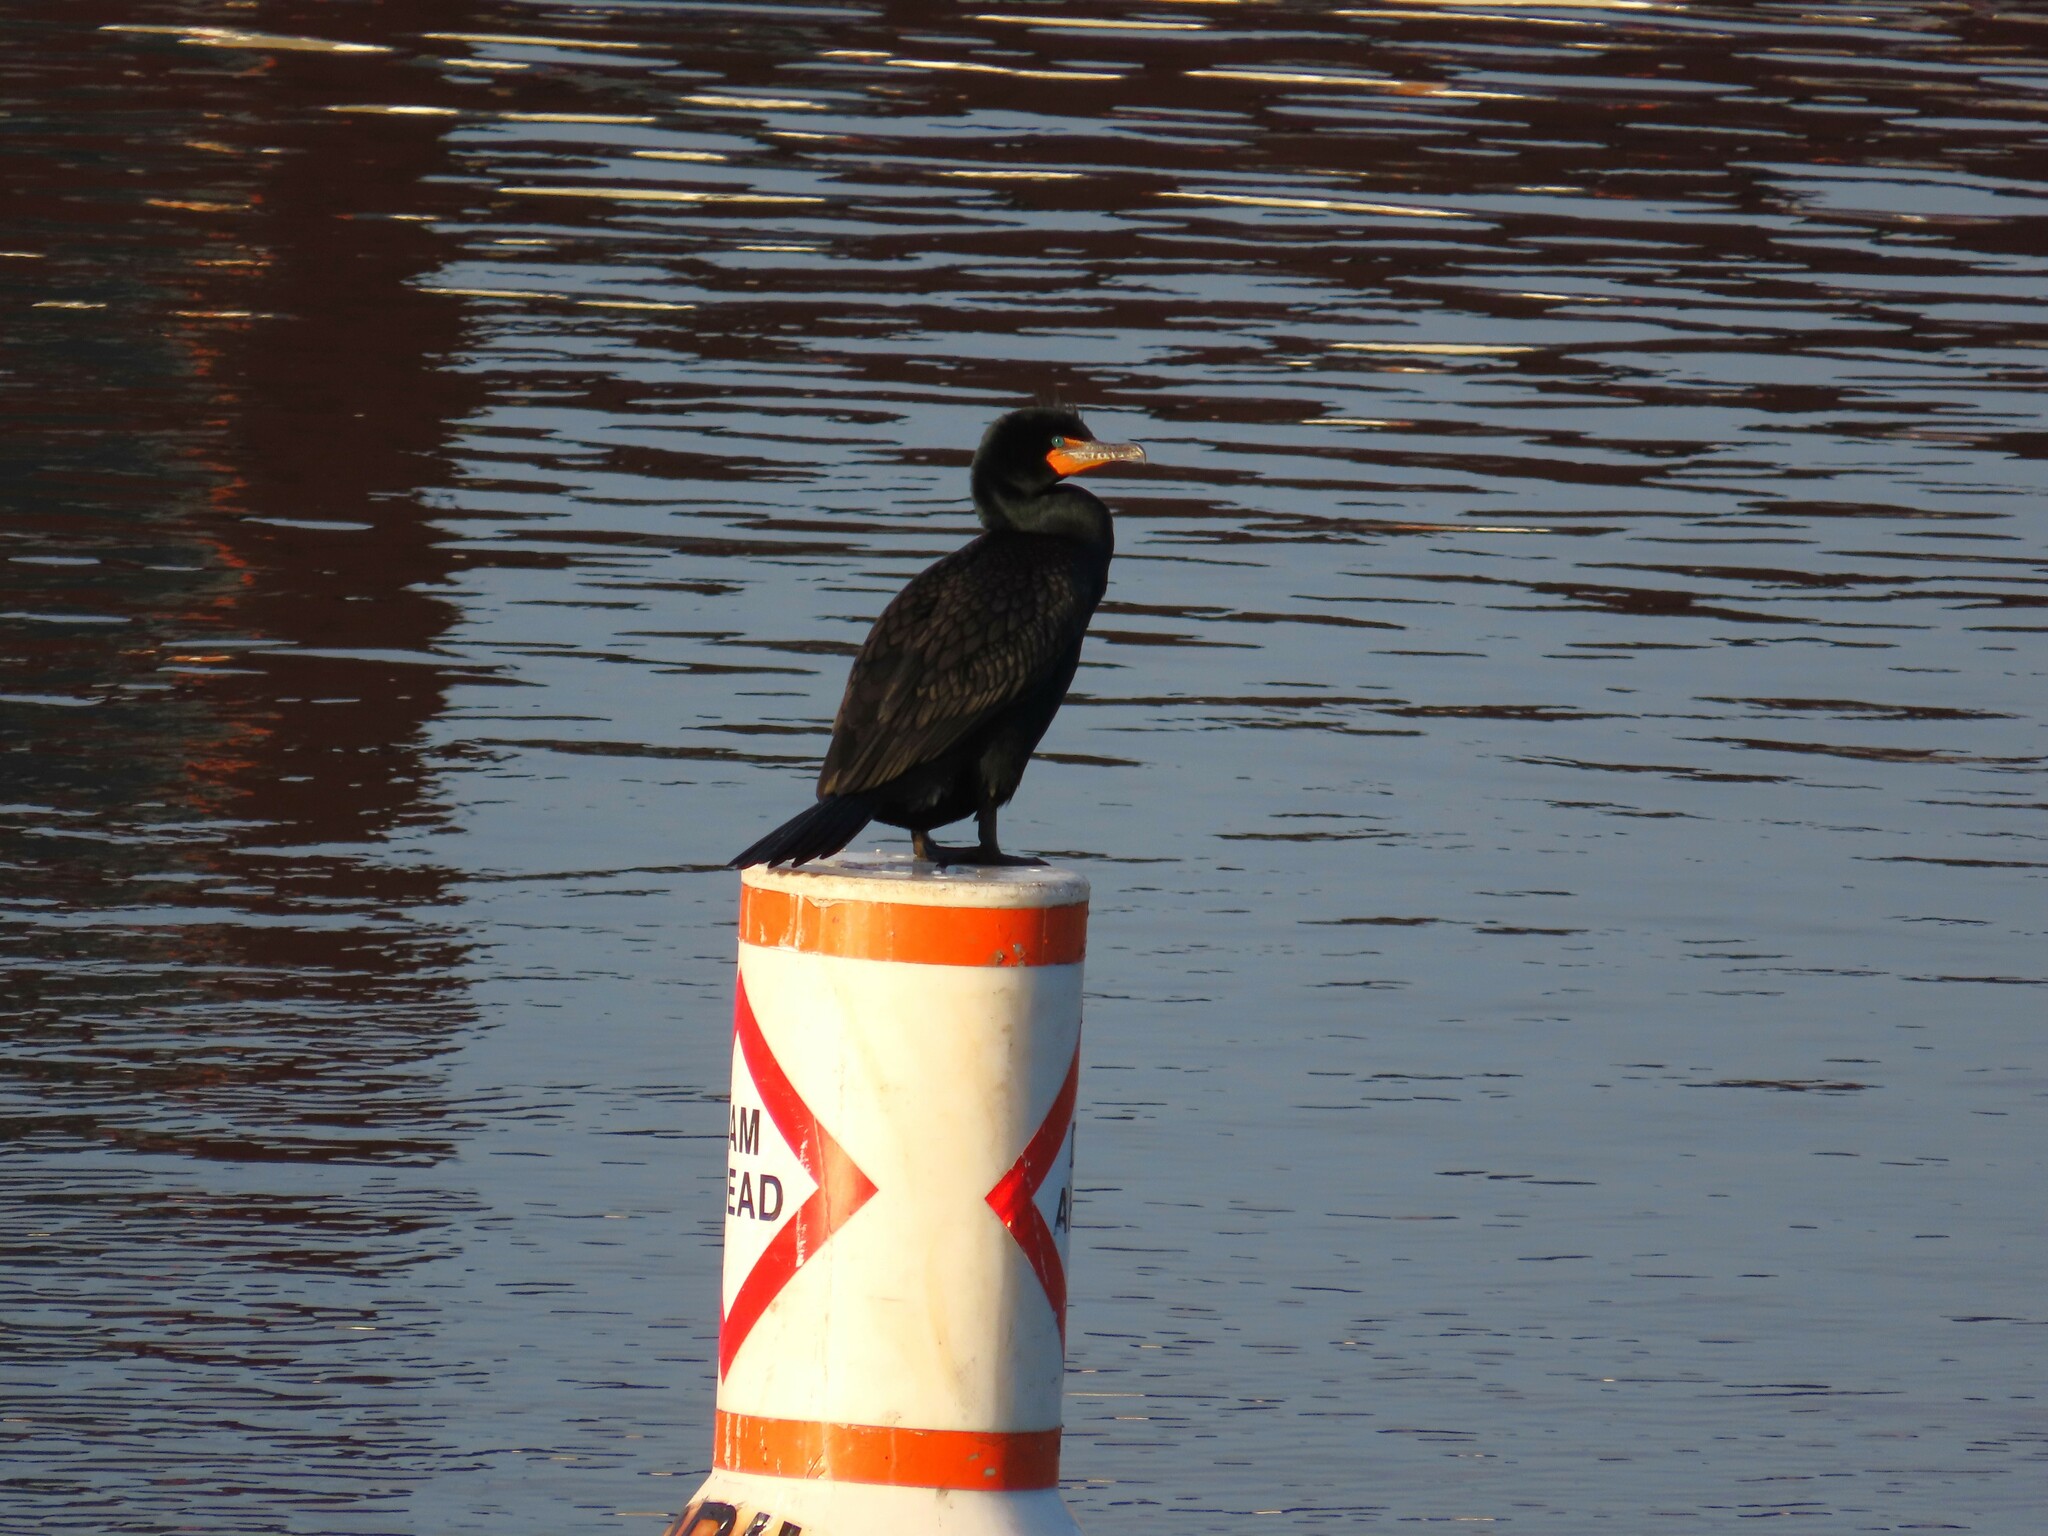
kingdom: Animalia
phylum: Chordata
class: Aves
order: Suliformes
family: Phalacrocoracidae
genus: Phalacrocorax
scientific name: Phalacrocorax auritus
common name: Double-crested cormorant
